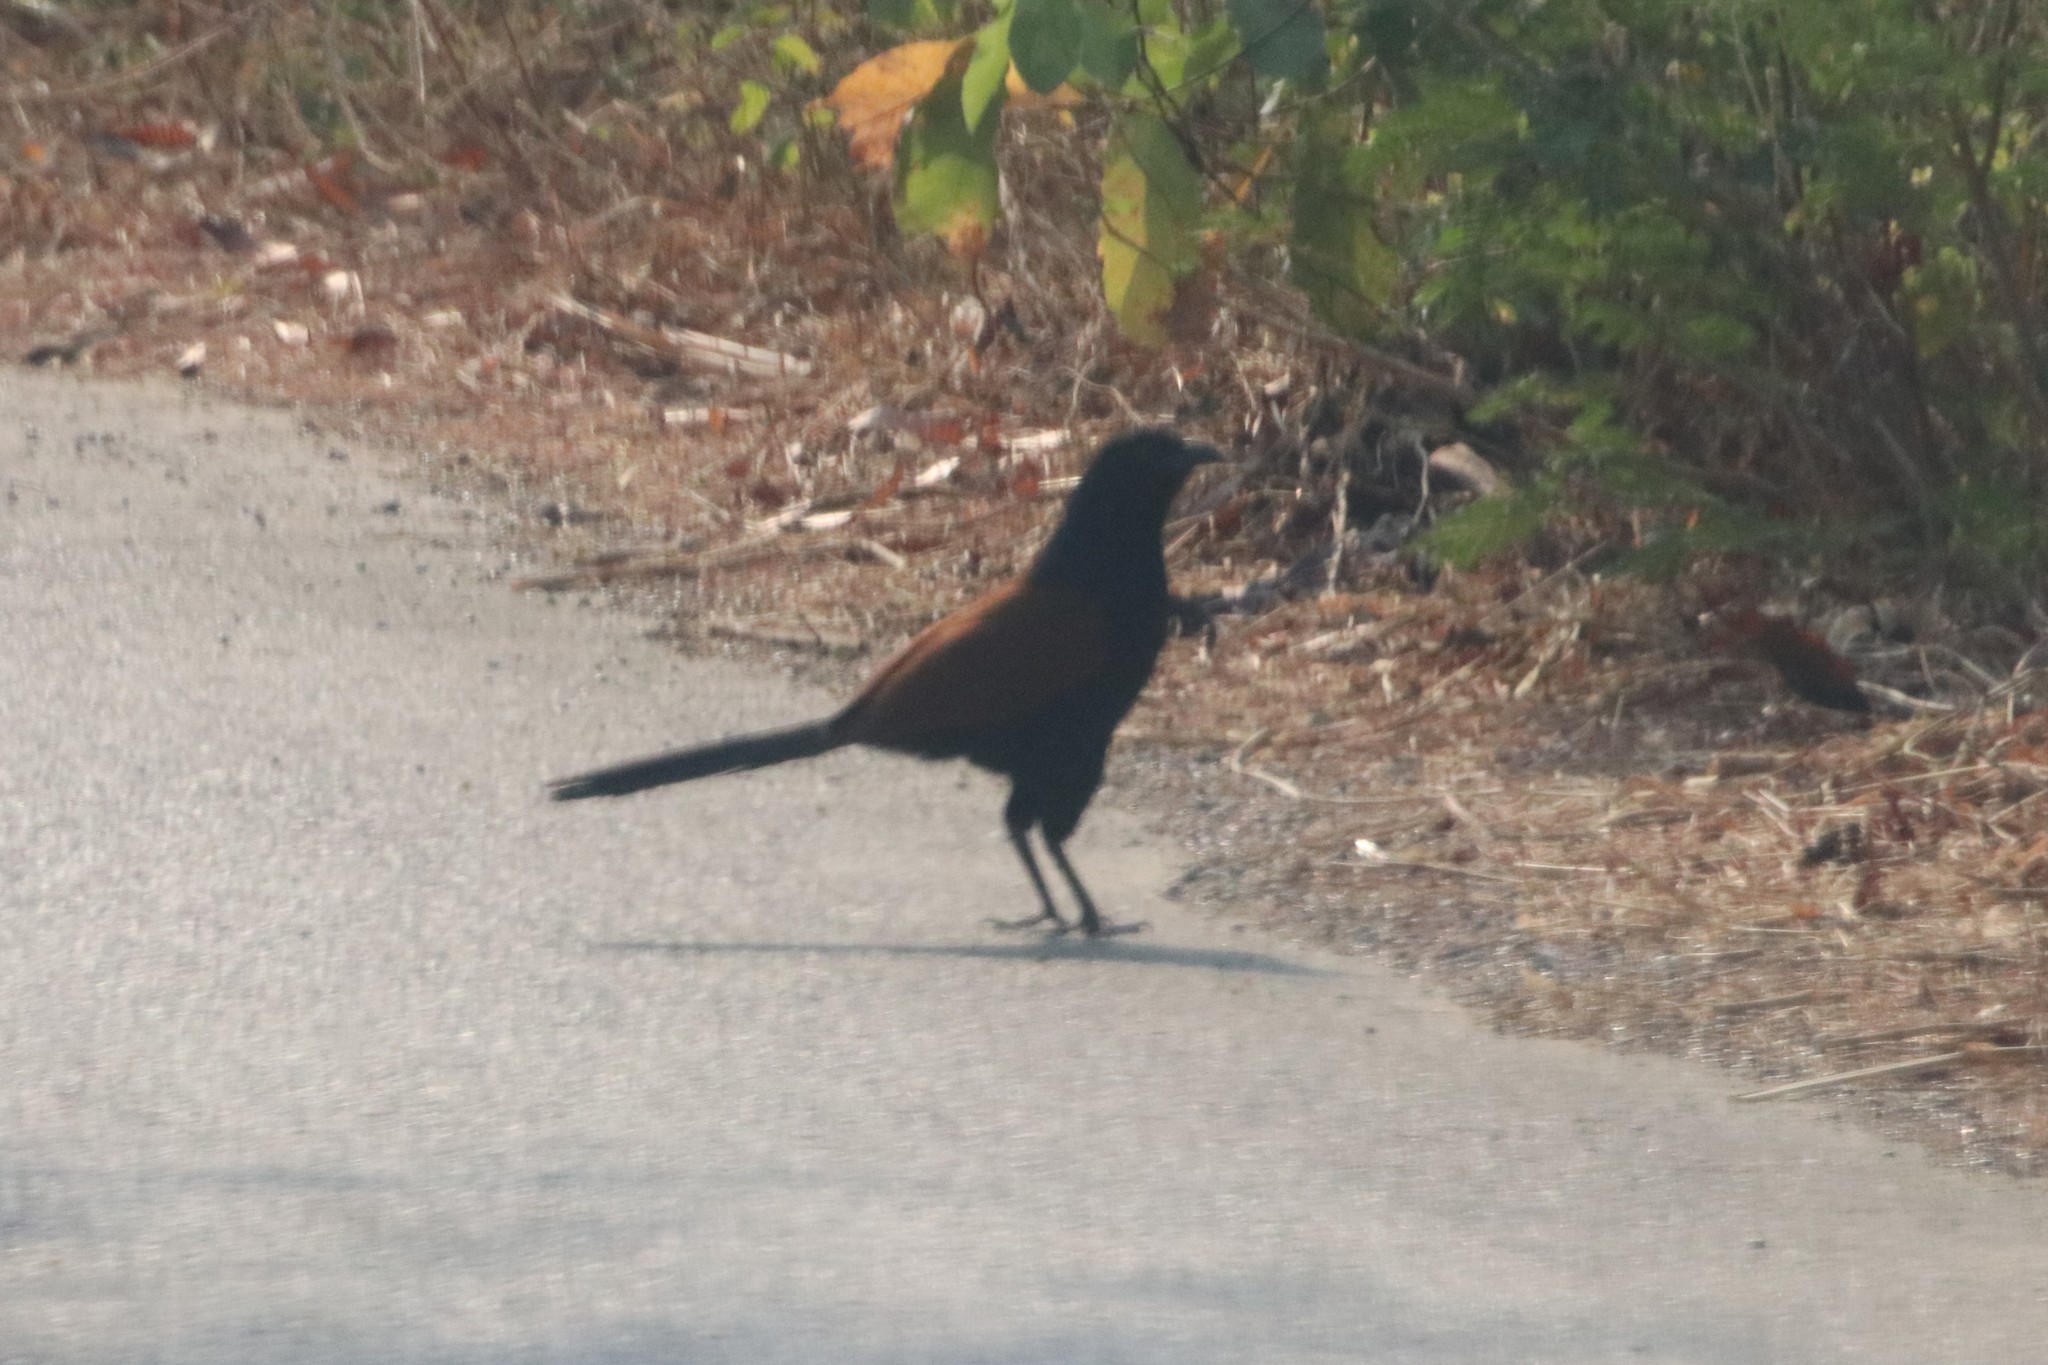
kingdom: Animalia
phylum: Chordata
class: Aves
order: Cuculiformes
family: Cuculidae
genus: Centropus
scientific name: Centropus sinensis
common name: Greater coucal
